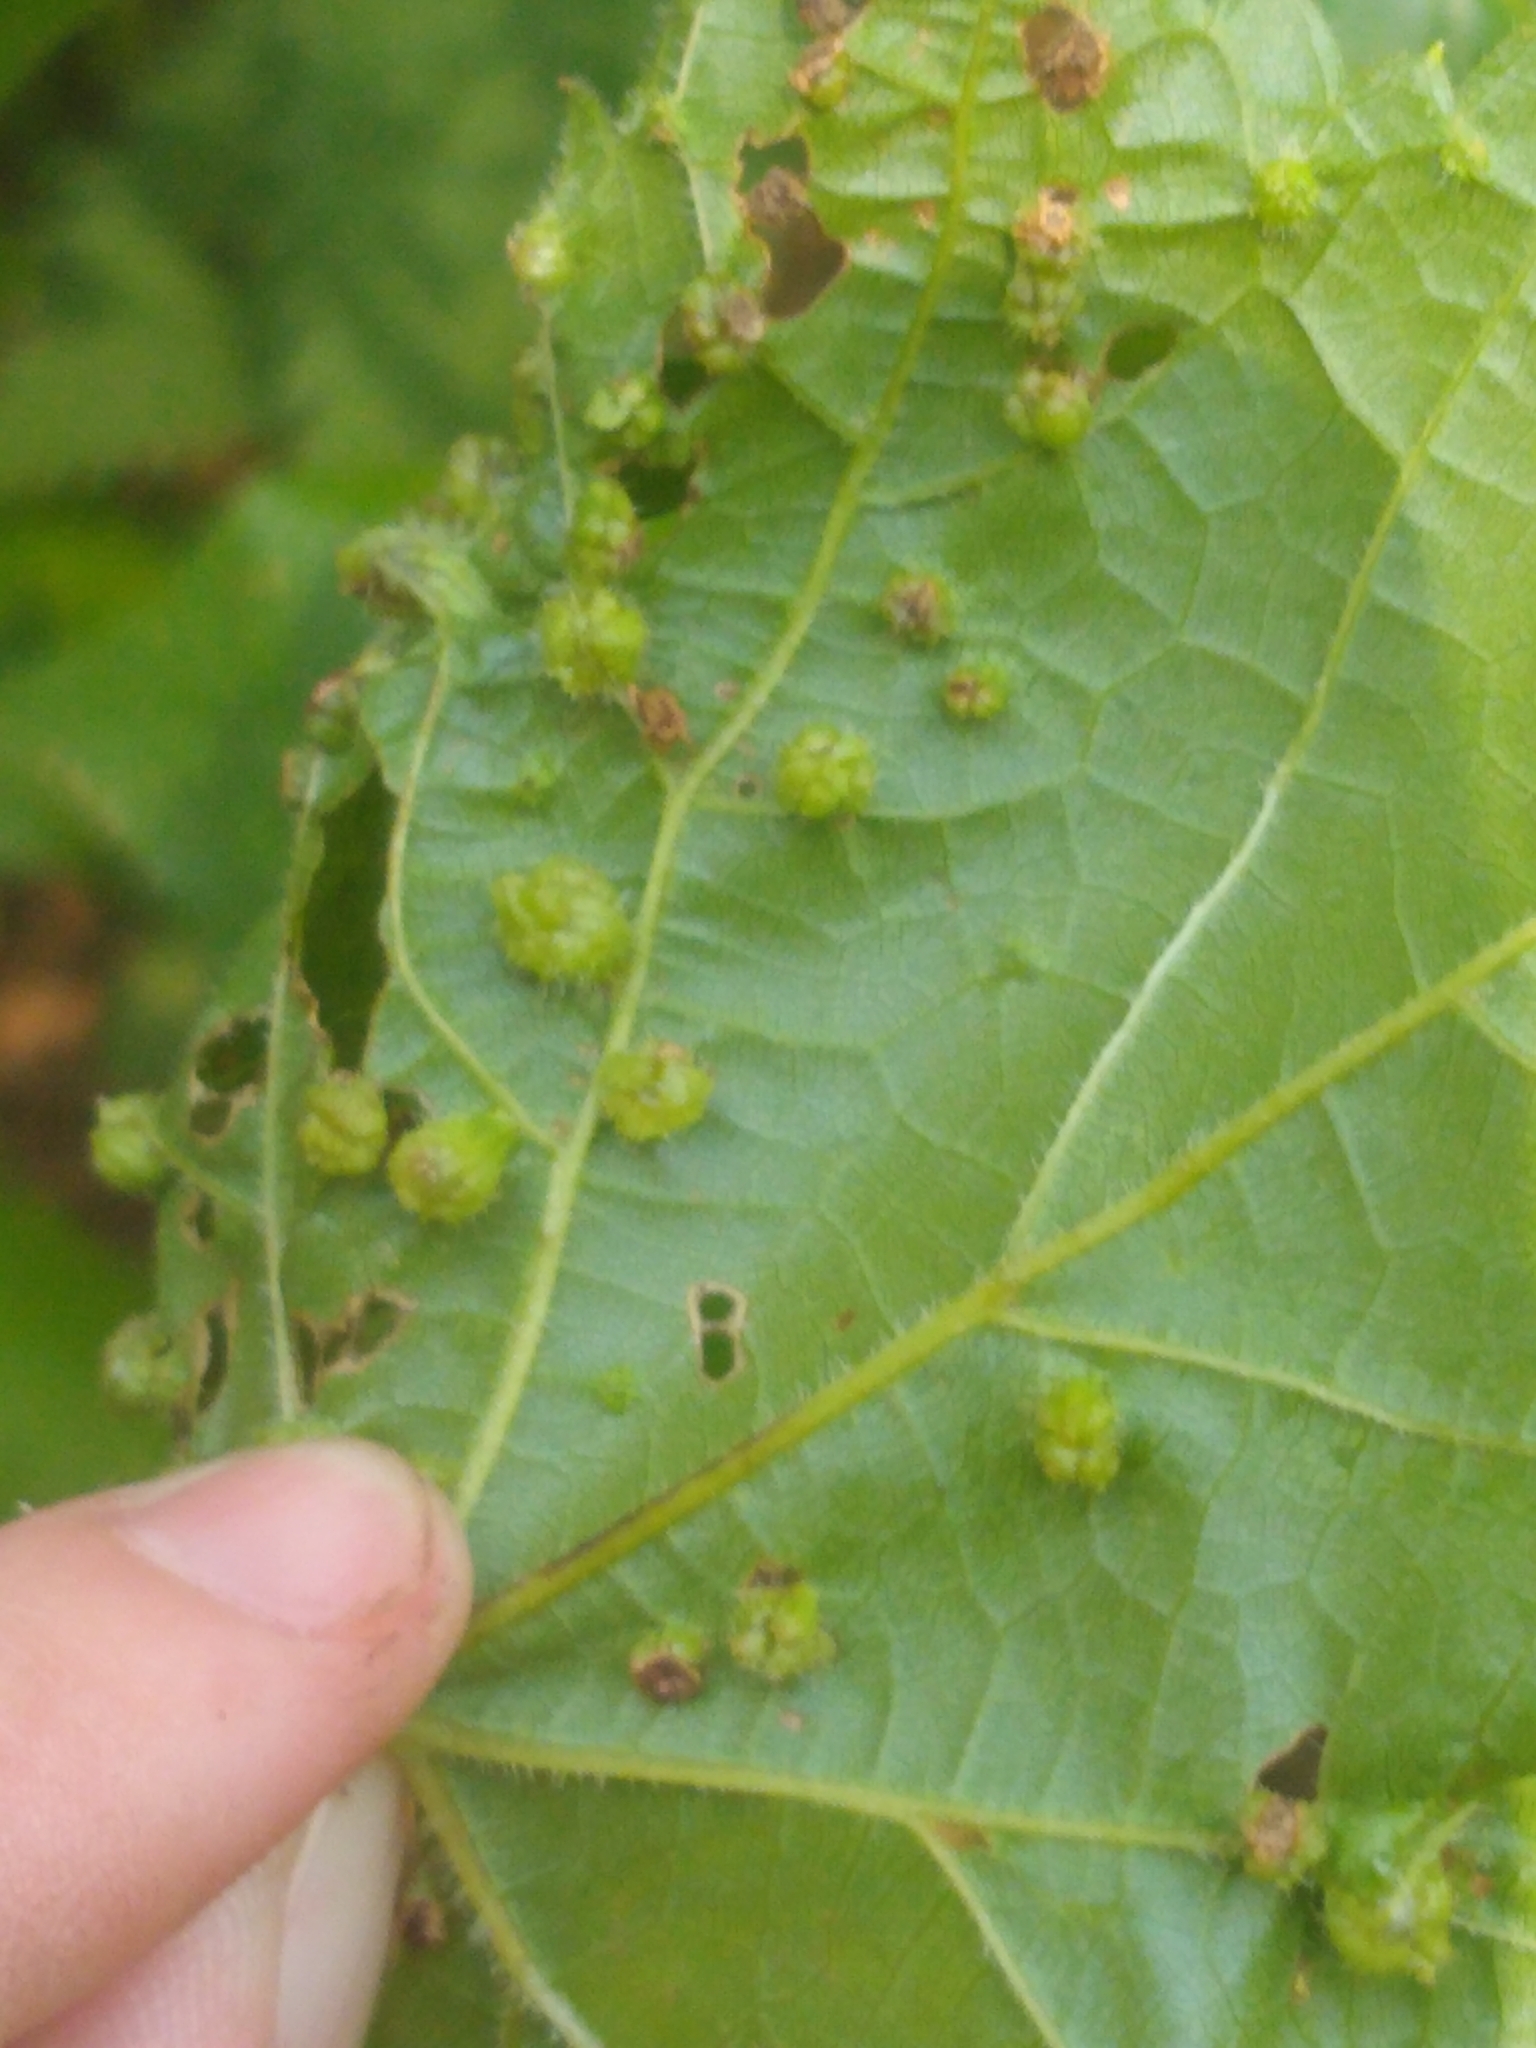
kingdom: Animalia
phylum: Arthropoda
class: Insecta
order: Hemiptera
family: Phylloxeridae
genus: Daktulosphaira
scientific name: Daktulosphaira vitifoliae
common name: Grape phylloxera
